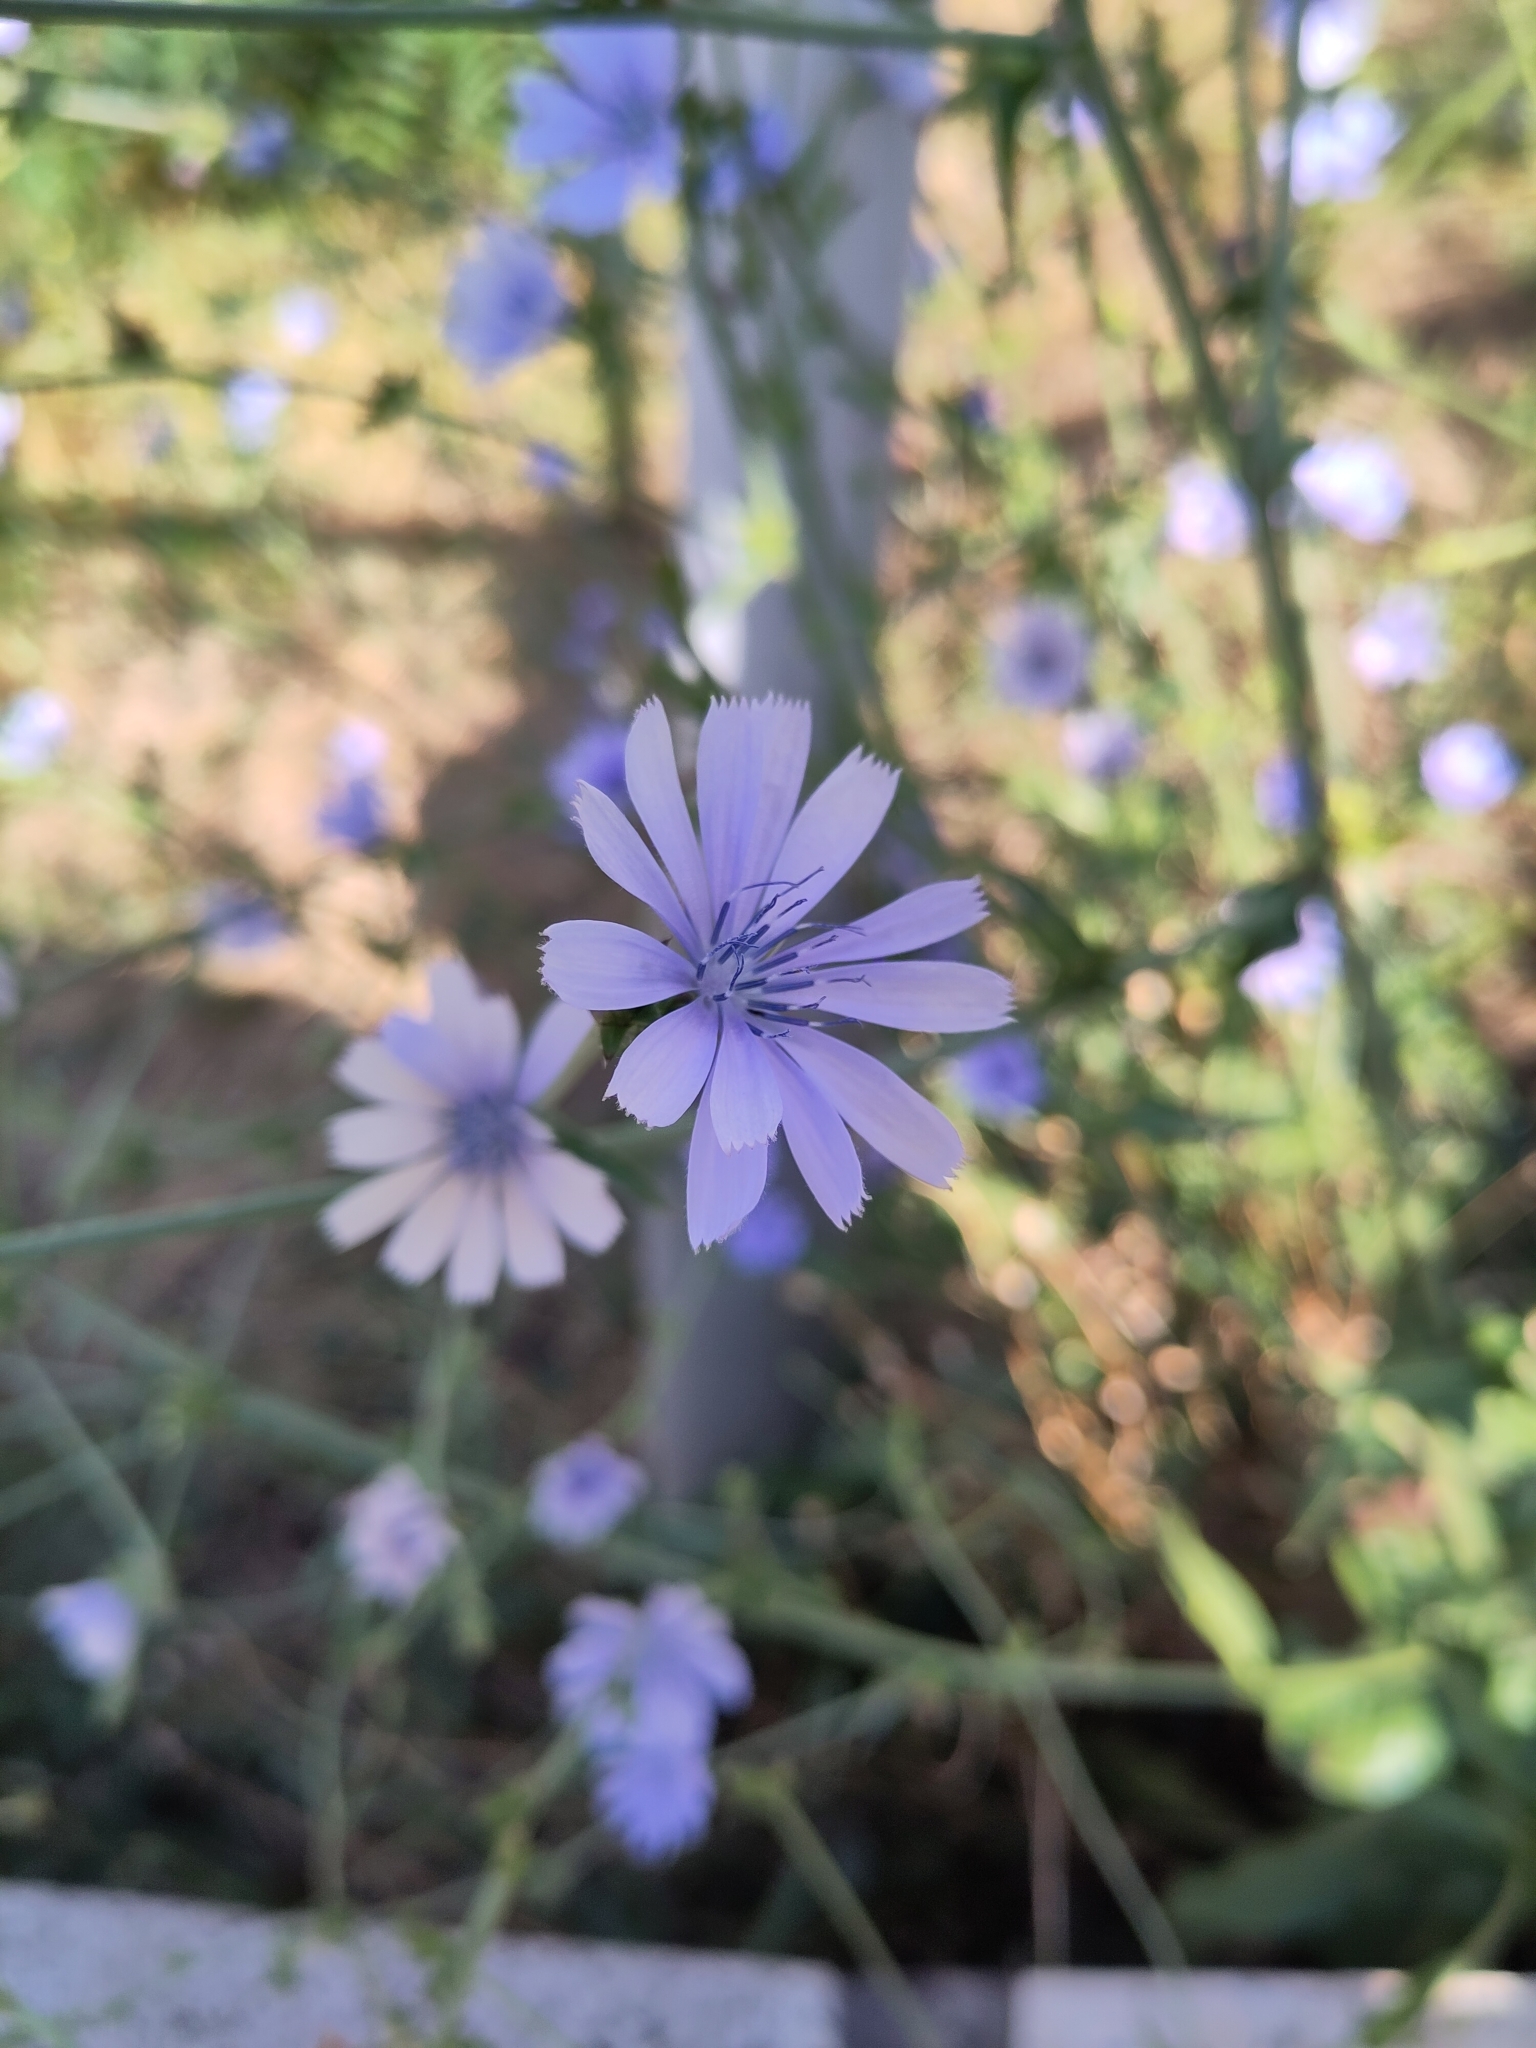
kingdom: Plantae
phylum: Tracheophyta
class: Magnoliopsida
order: Asterales
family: Asteraceae
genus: Cichorium
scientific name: Cichorium intybus
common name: Chicory
